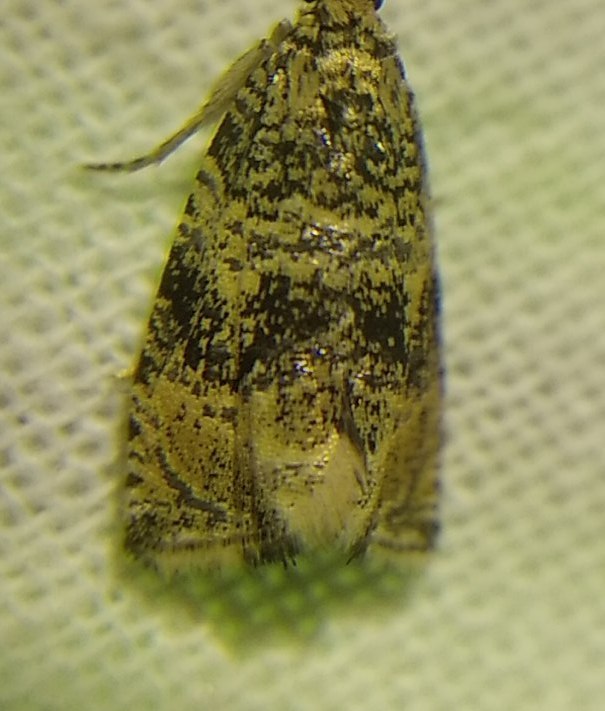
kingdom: Animalia
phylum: Arthropoda
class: Insecta
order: Lepidoptera
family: Tortricidae
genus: Syricoris
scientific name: Syricoris lacunana
